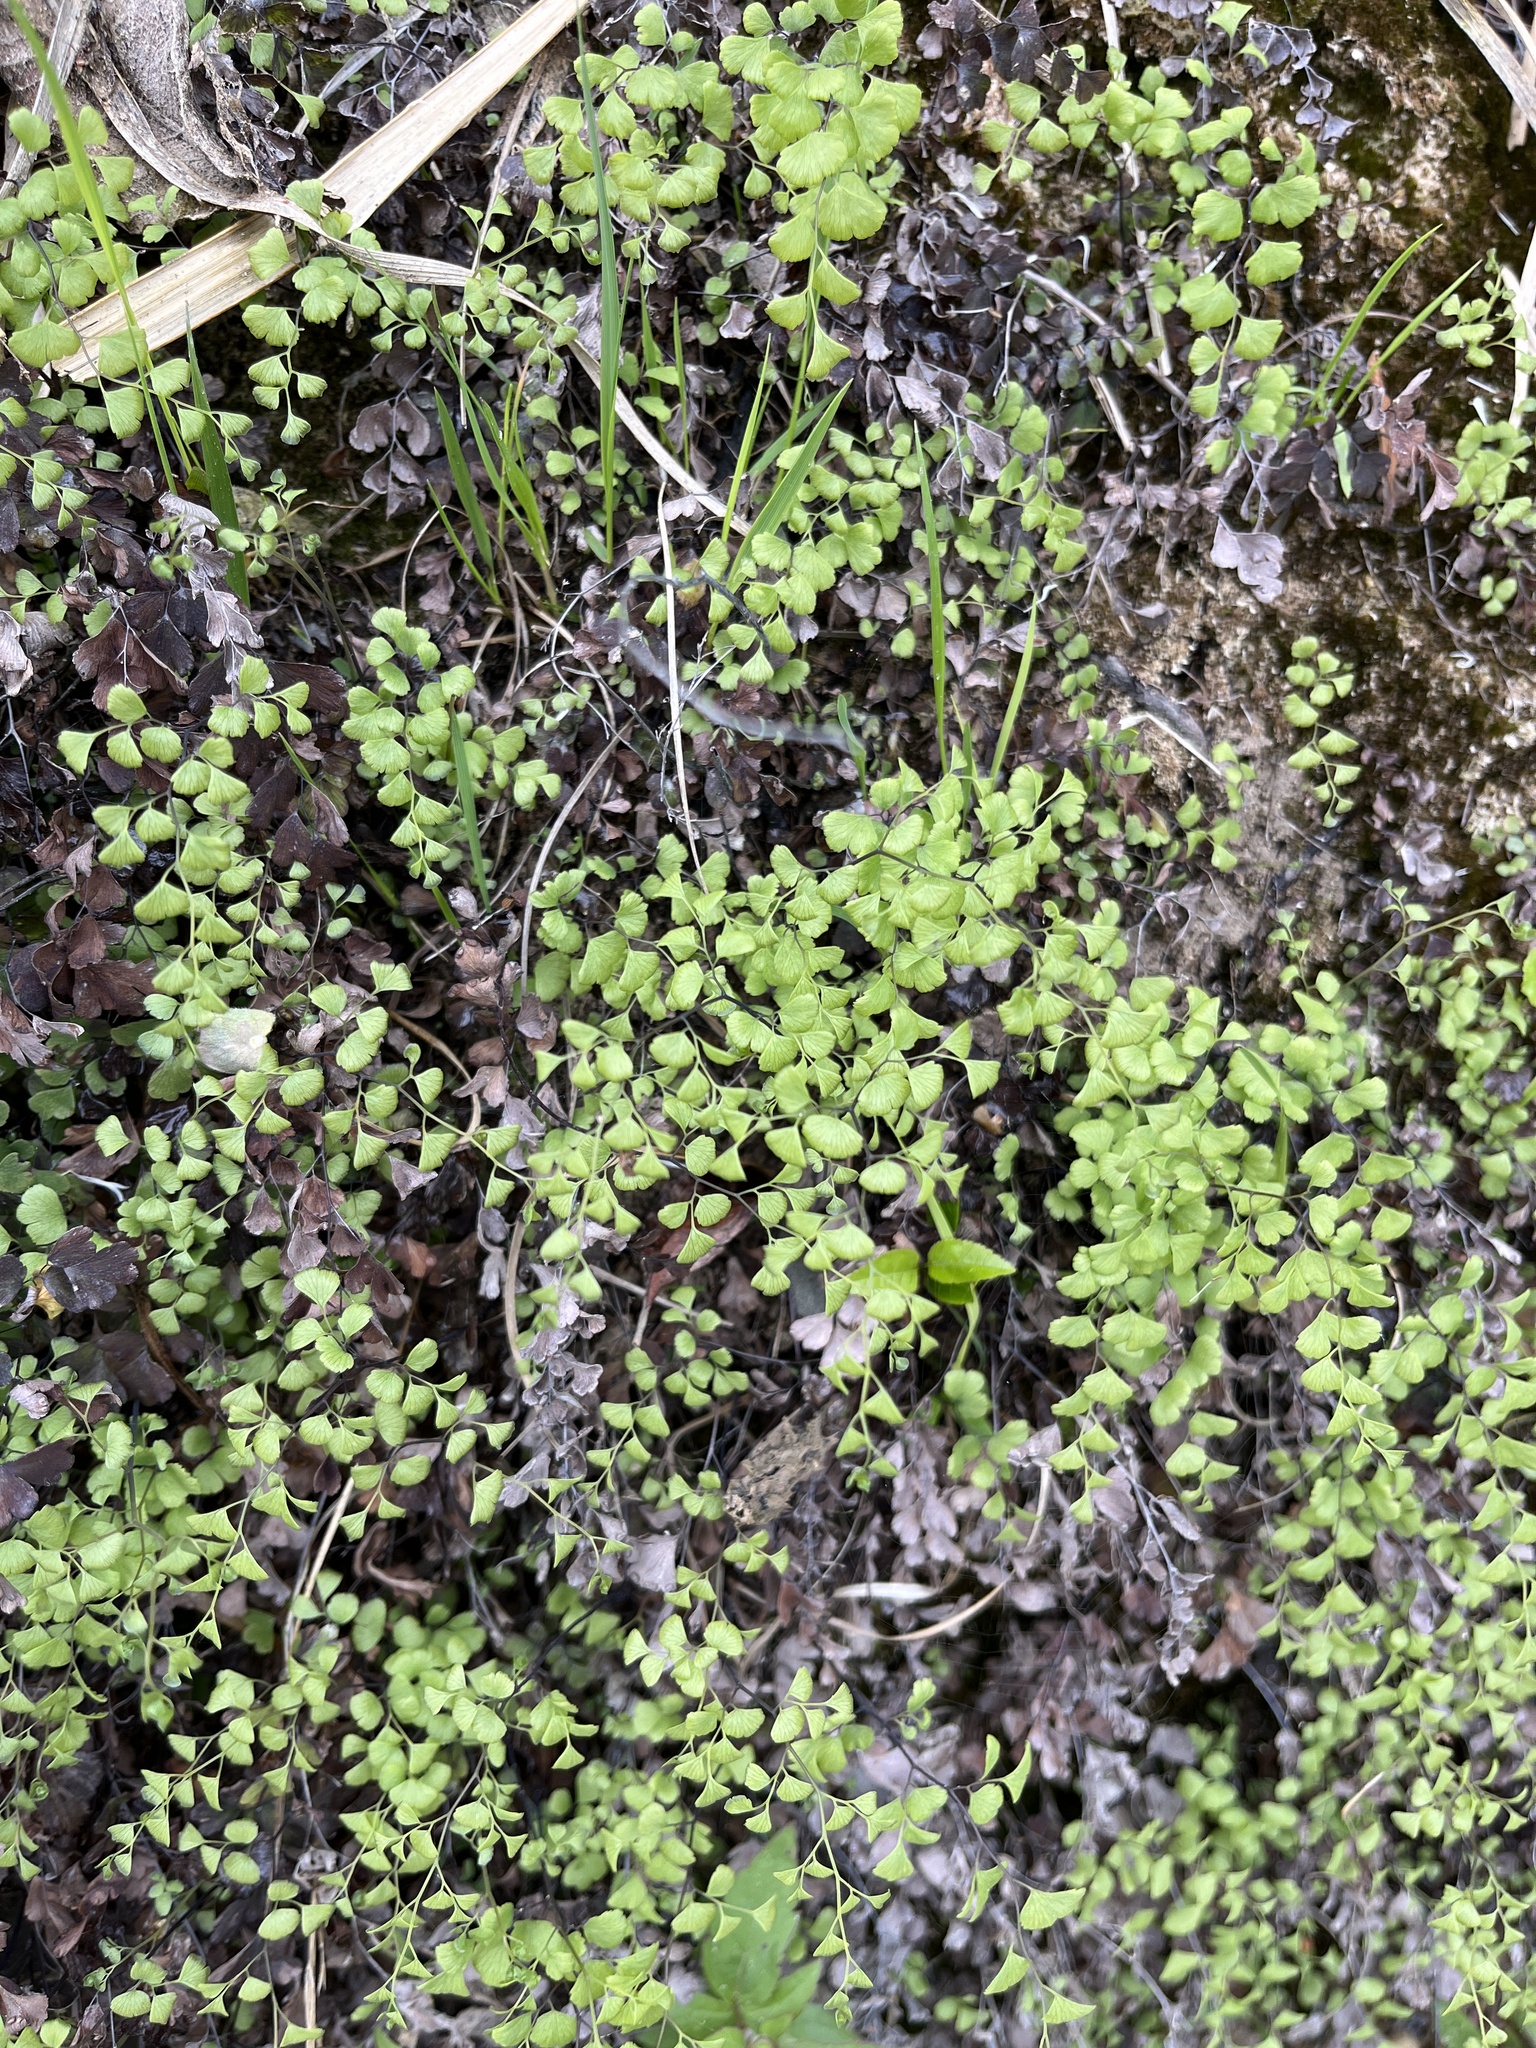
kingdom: Plantae
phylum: Tracheophyta
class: Polypodiopsida
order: Polypodiales
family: Pteridaceae
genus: Adiantum
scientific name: Adiantum capillus-veneris
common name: Maidenhair fern
